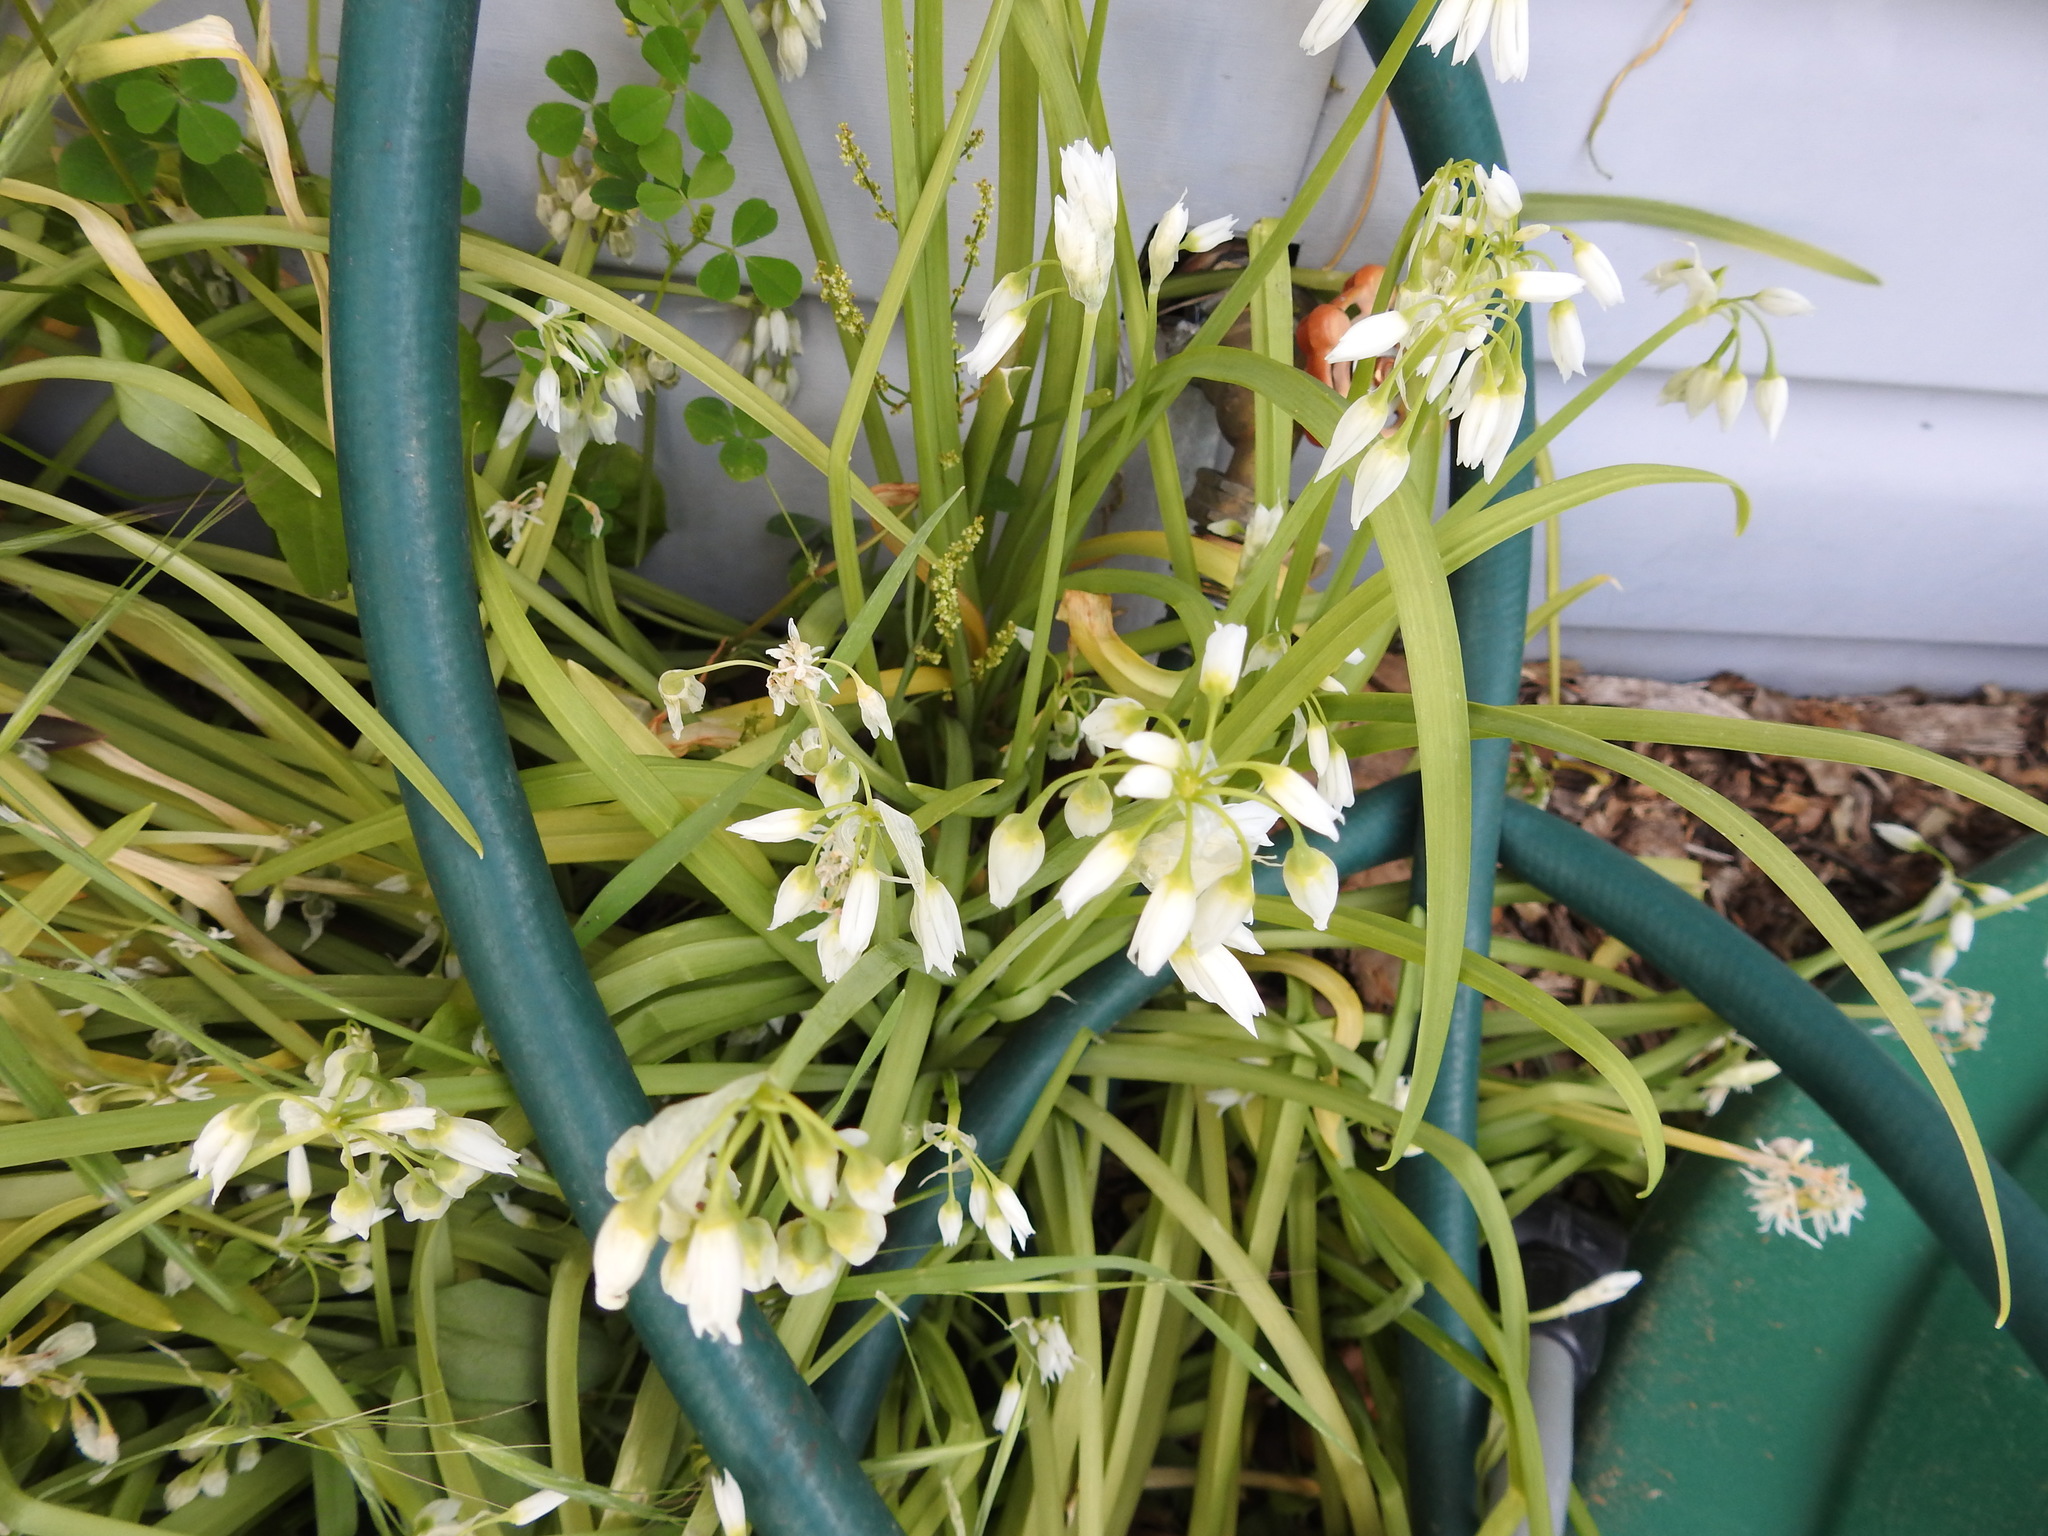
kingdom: Plantae
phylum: Tracheophyta
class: Liliopsida
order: Asparagales
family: Amaryllidaceae
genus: Allium
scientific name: Allium triquetrum
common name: Three-cornered garlic
